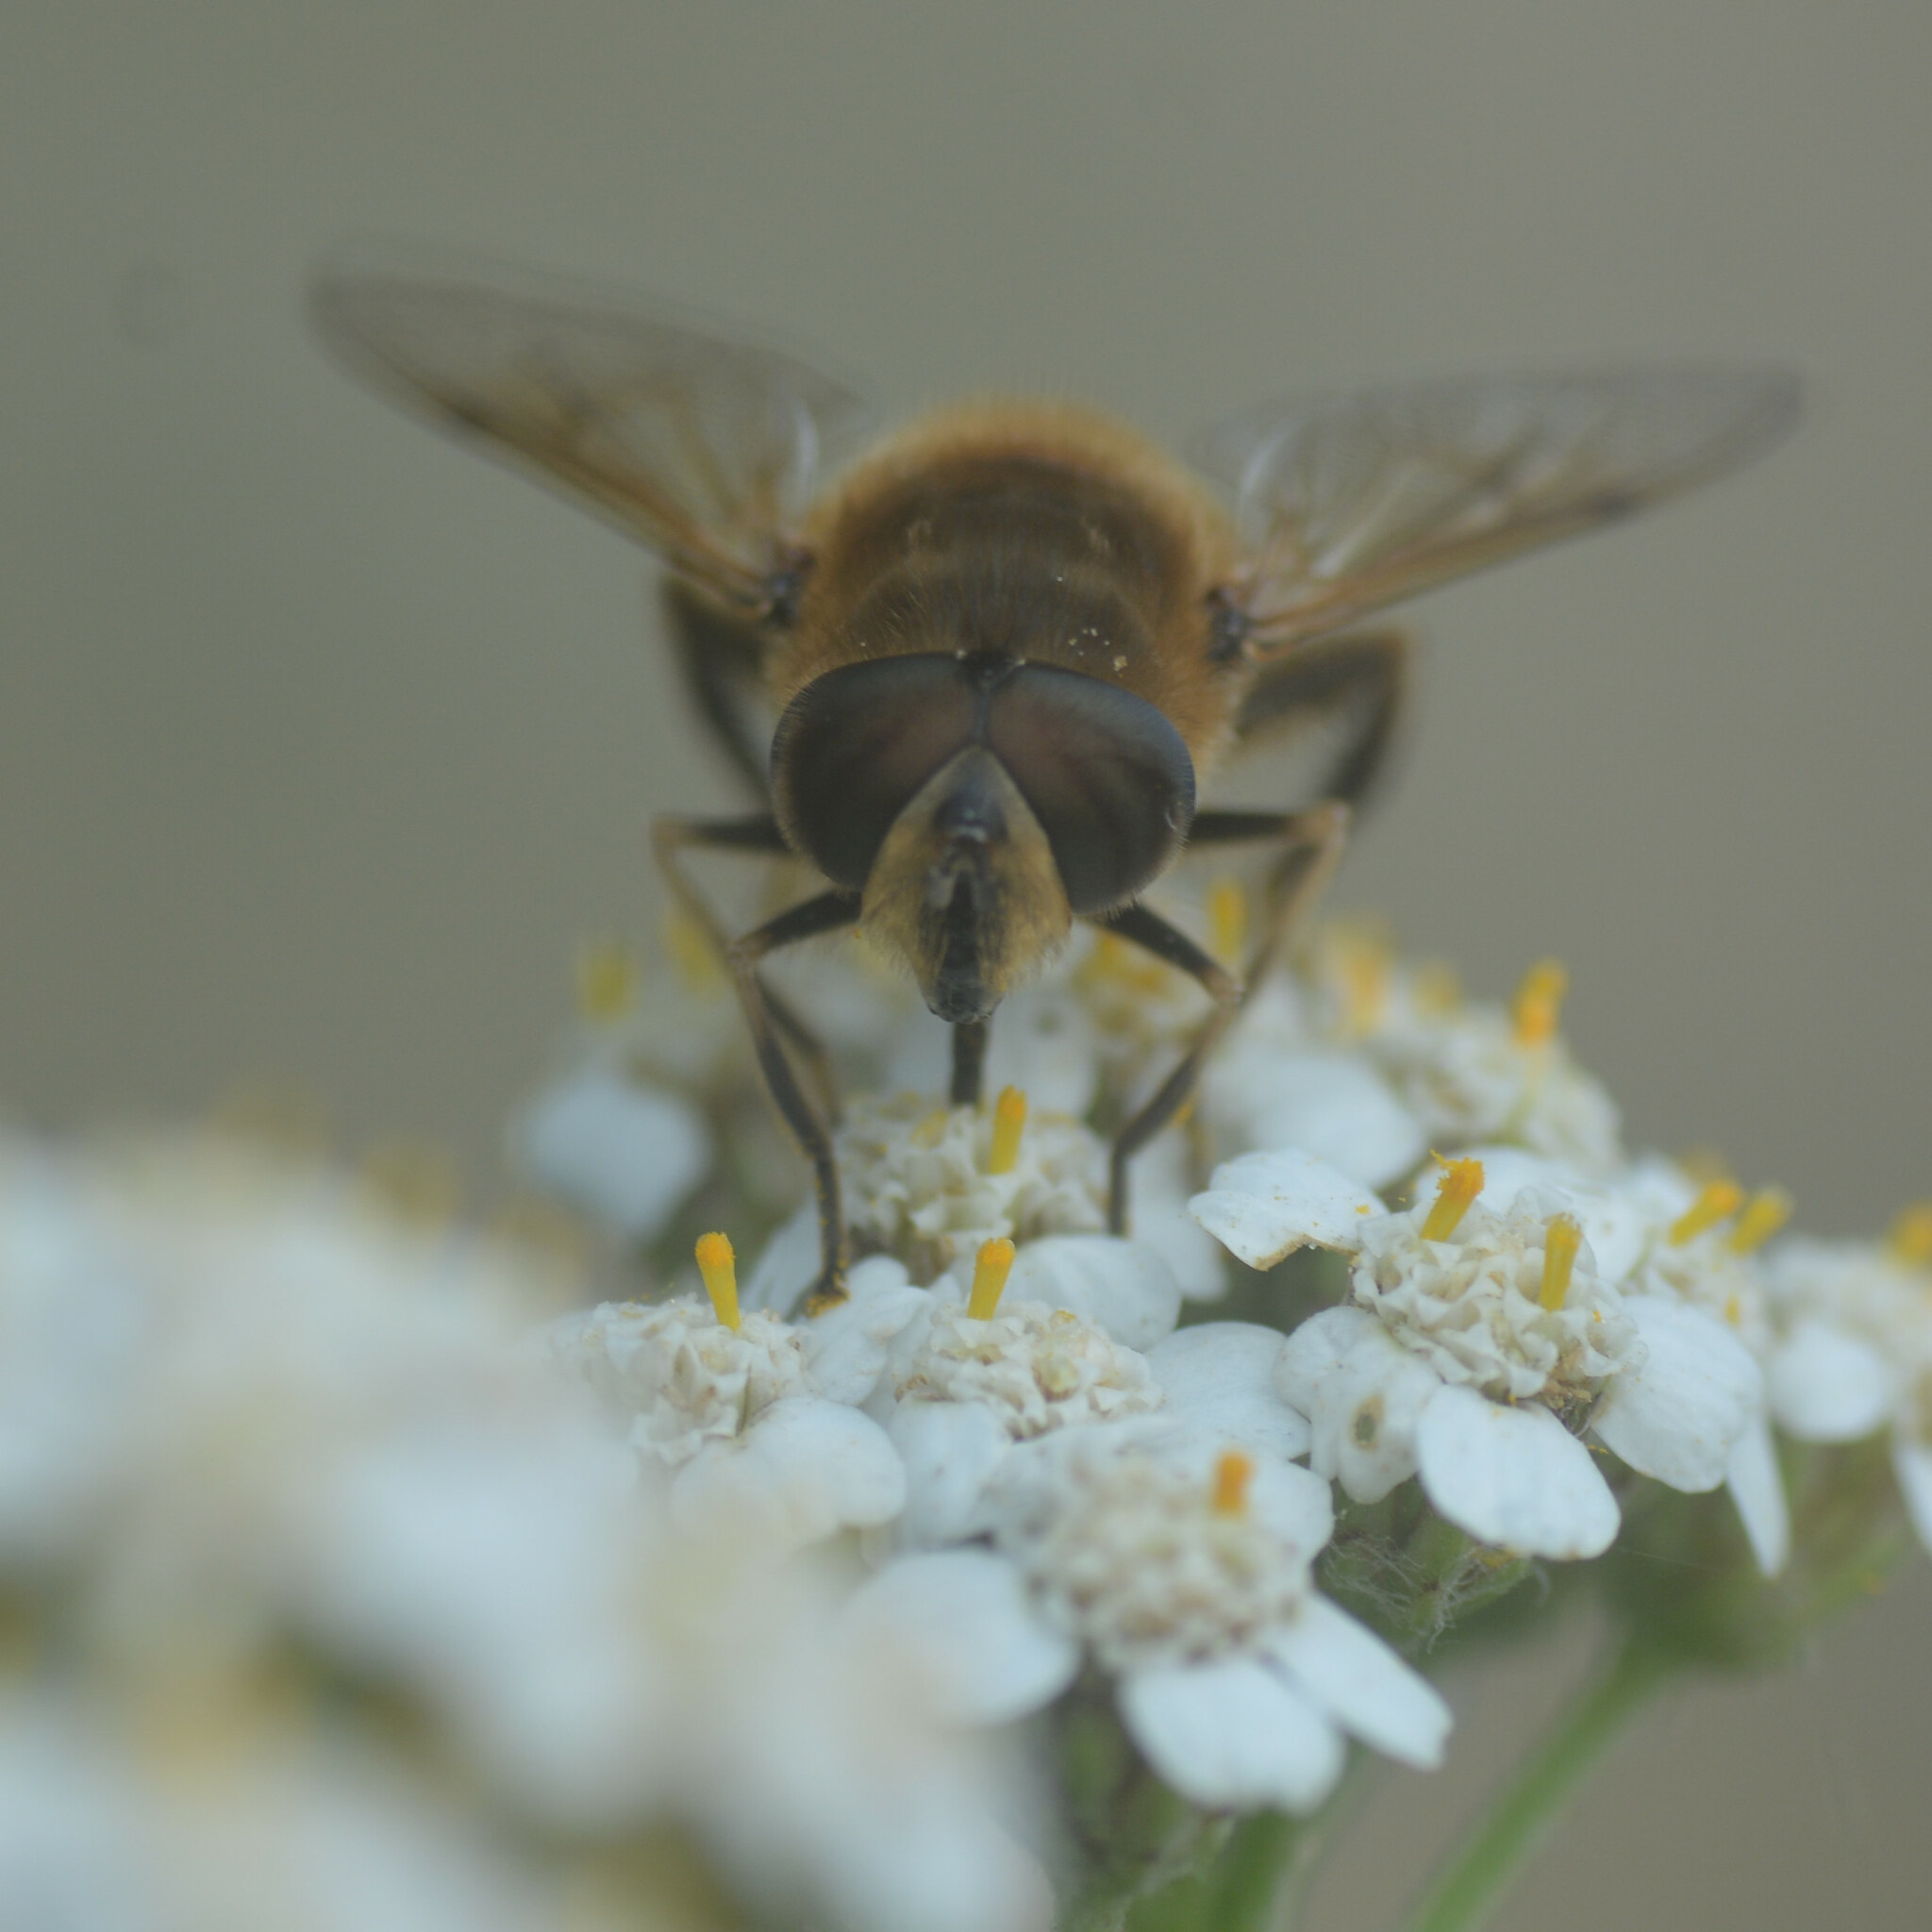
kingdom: Animalia
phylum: Arthropoda
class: Insecta
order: Diptera
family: Syrphidae
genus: Eristalis
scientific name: Eristalis tenax
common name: Drone fly
